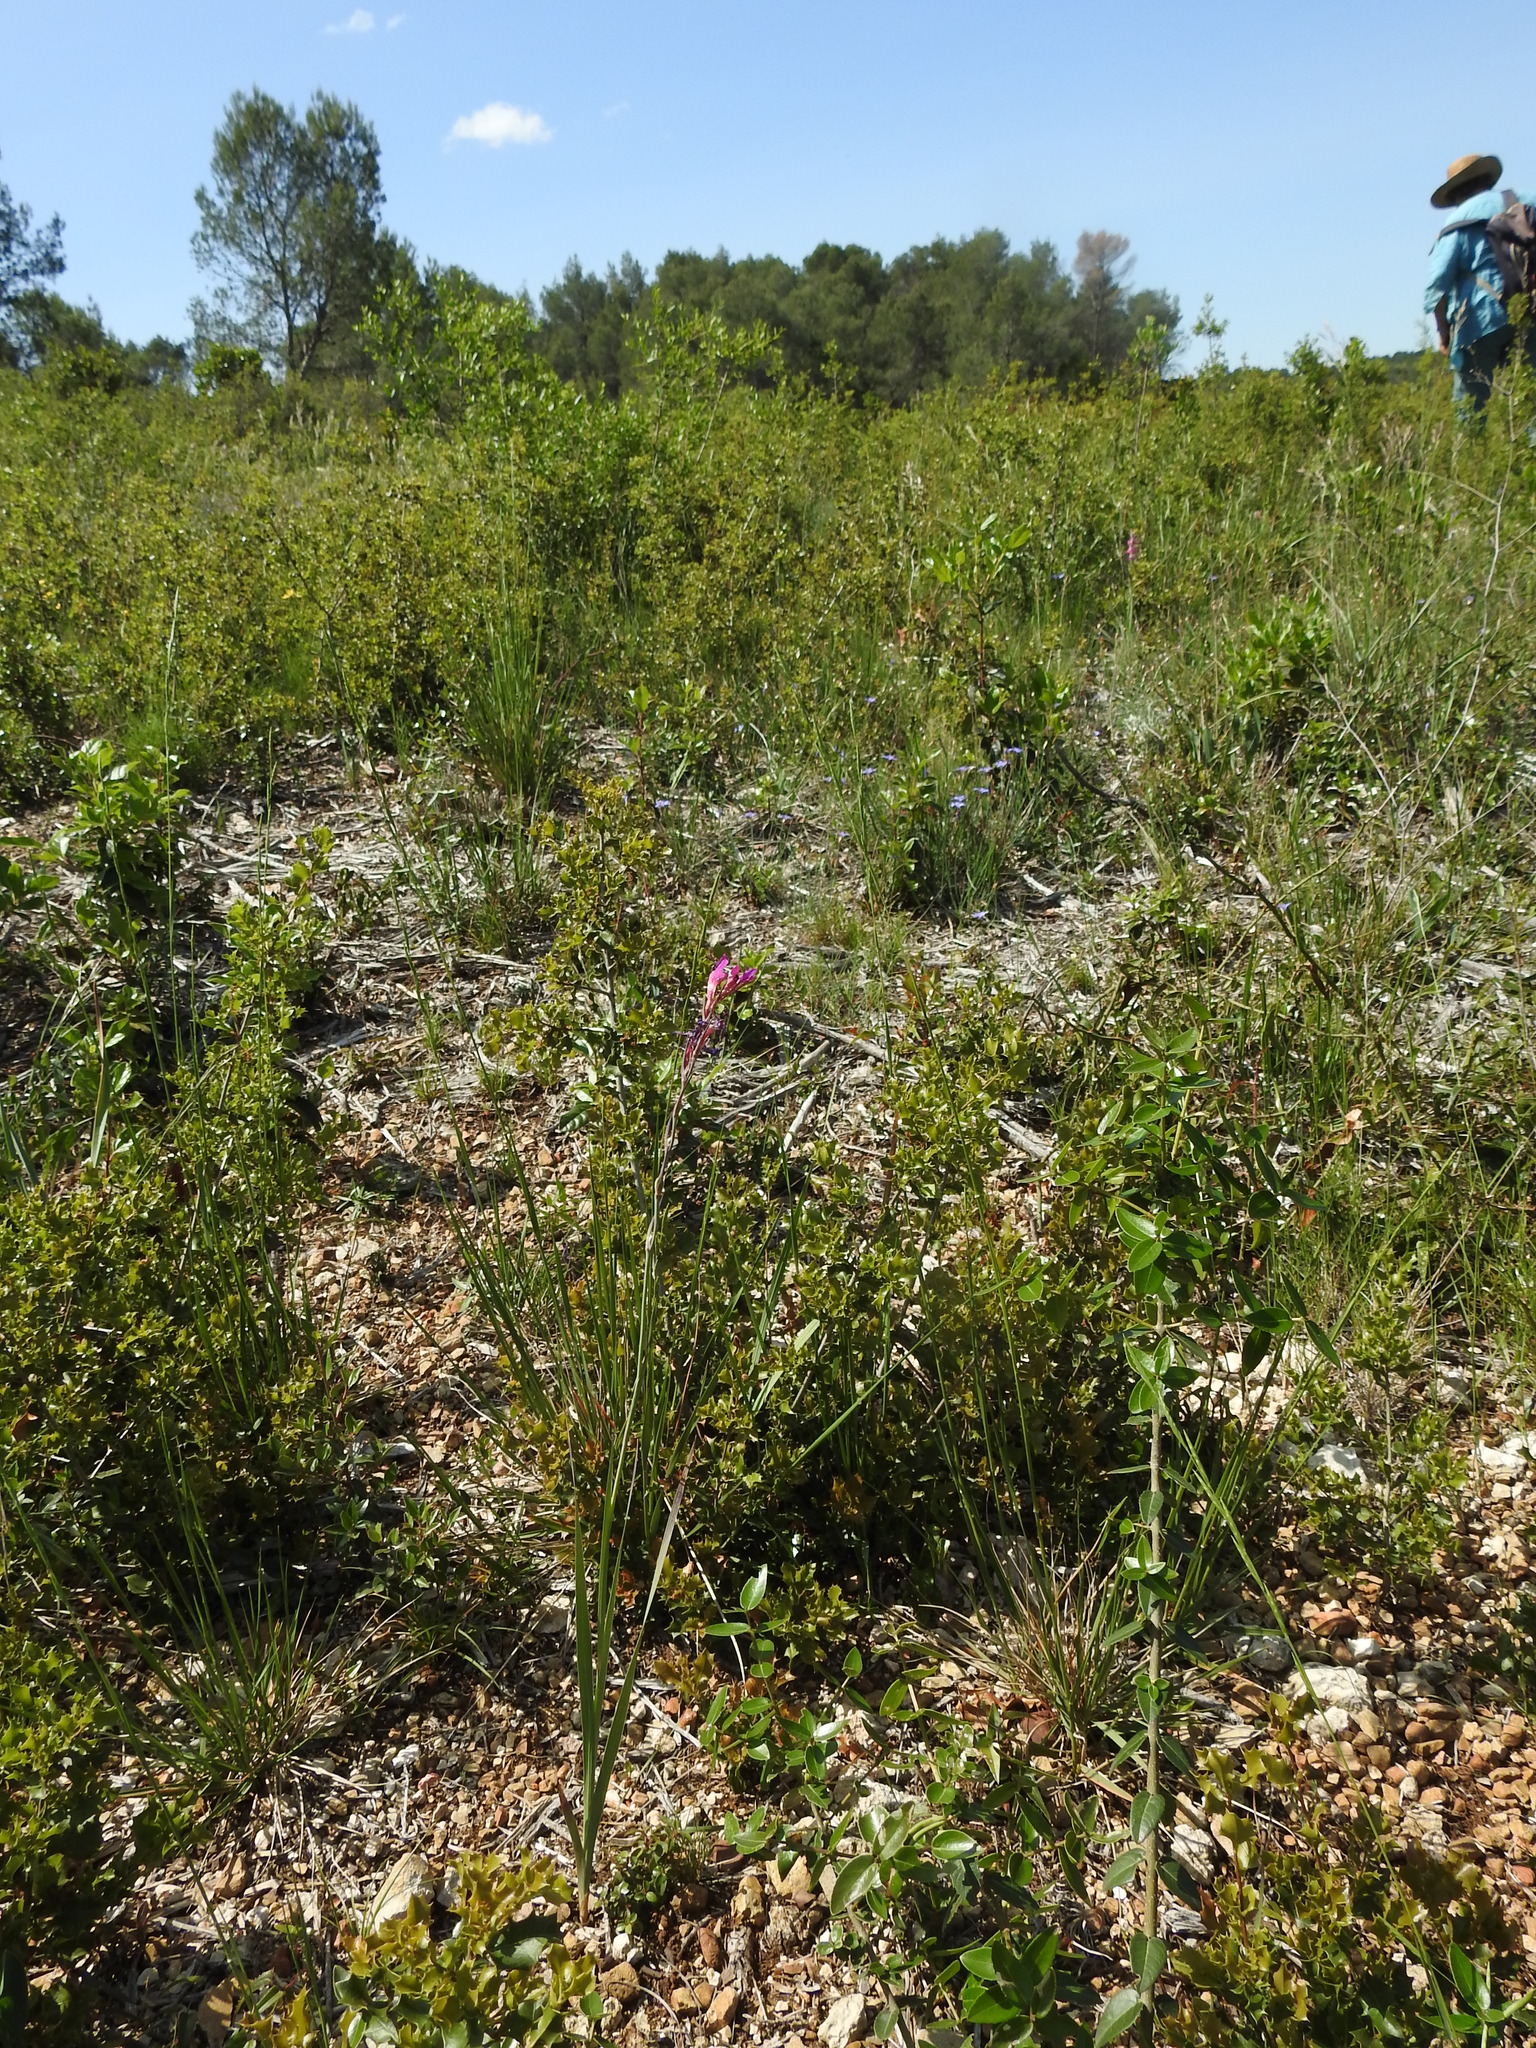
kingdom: Plantae
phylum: Tracheophyta
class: Liliopsida
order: Asparagales
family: Iridaceae
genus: Gladiolus
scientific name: Gladiolus dubius
